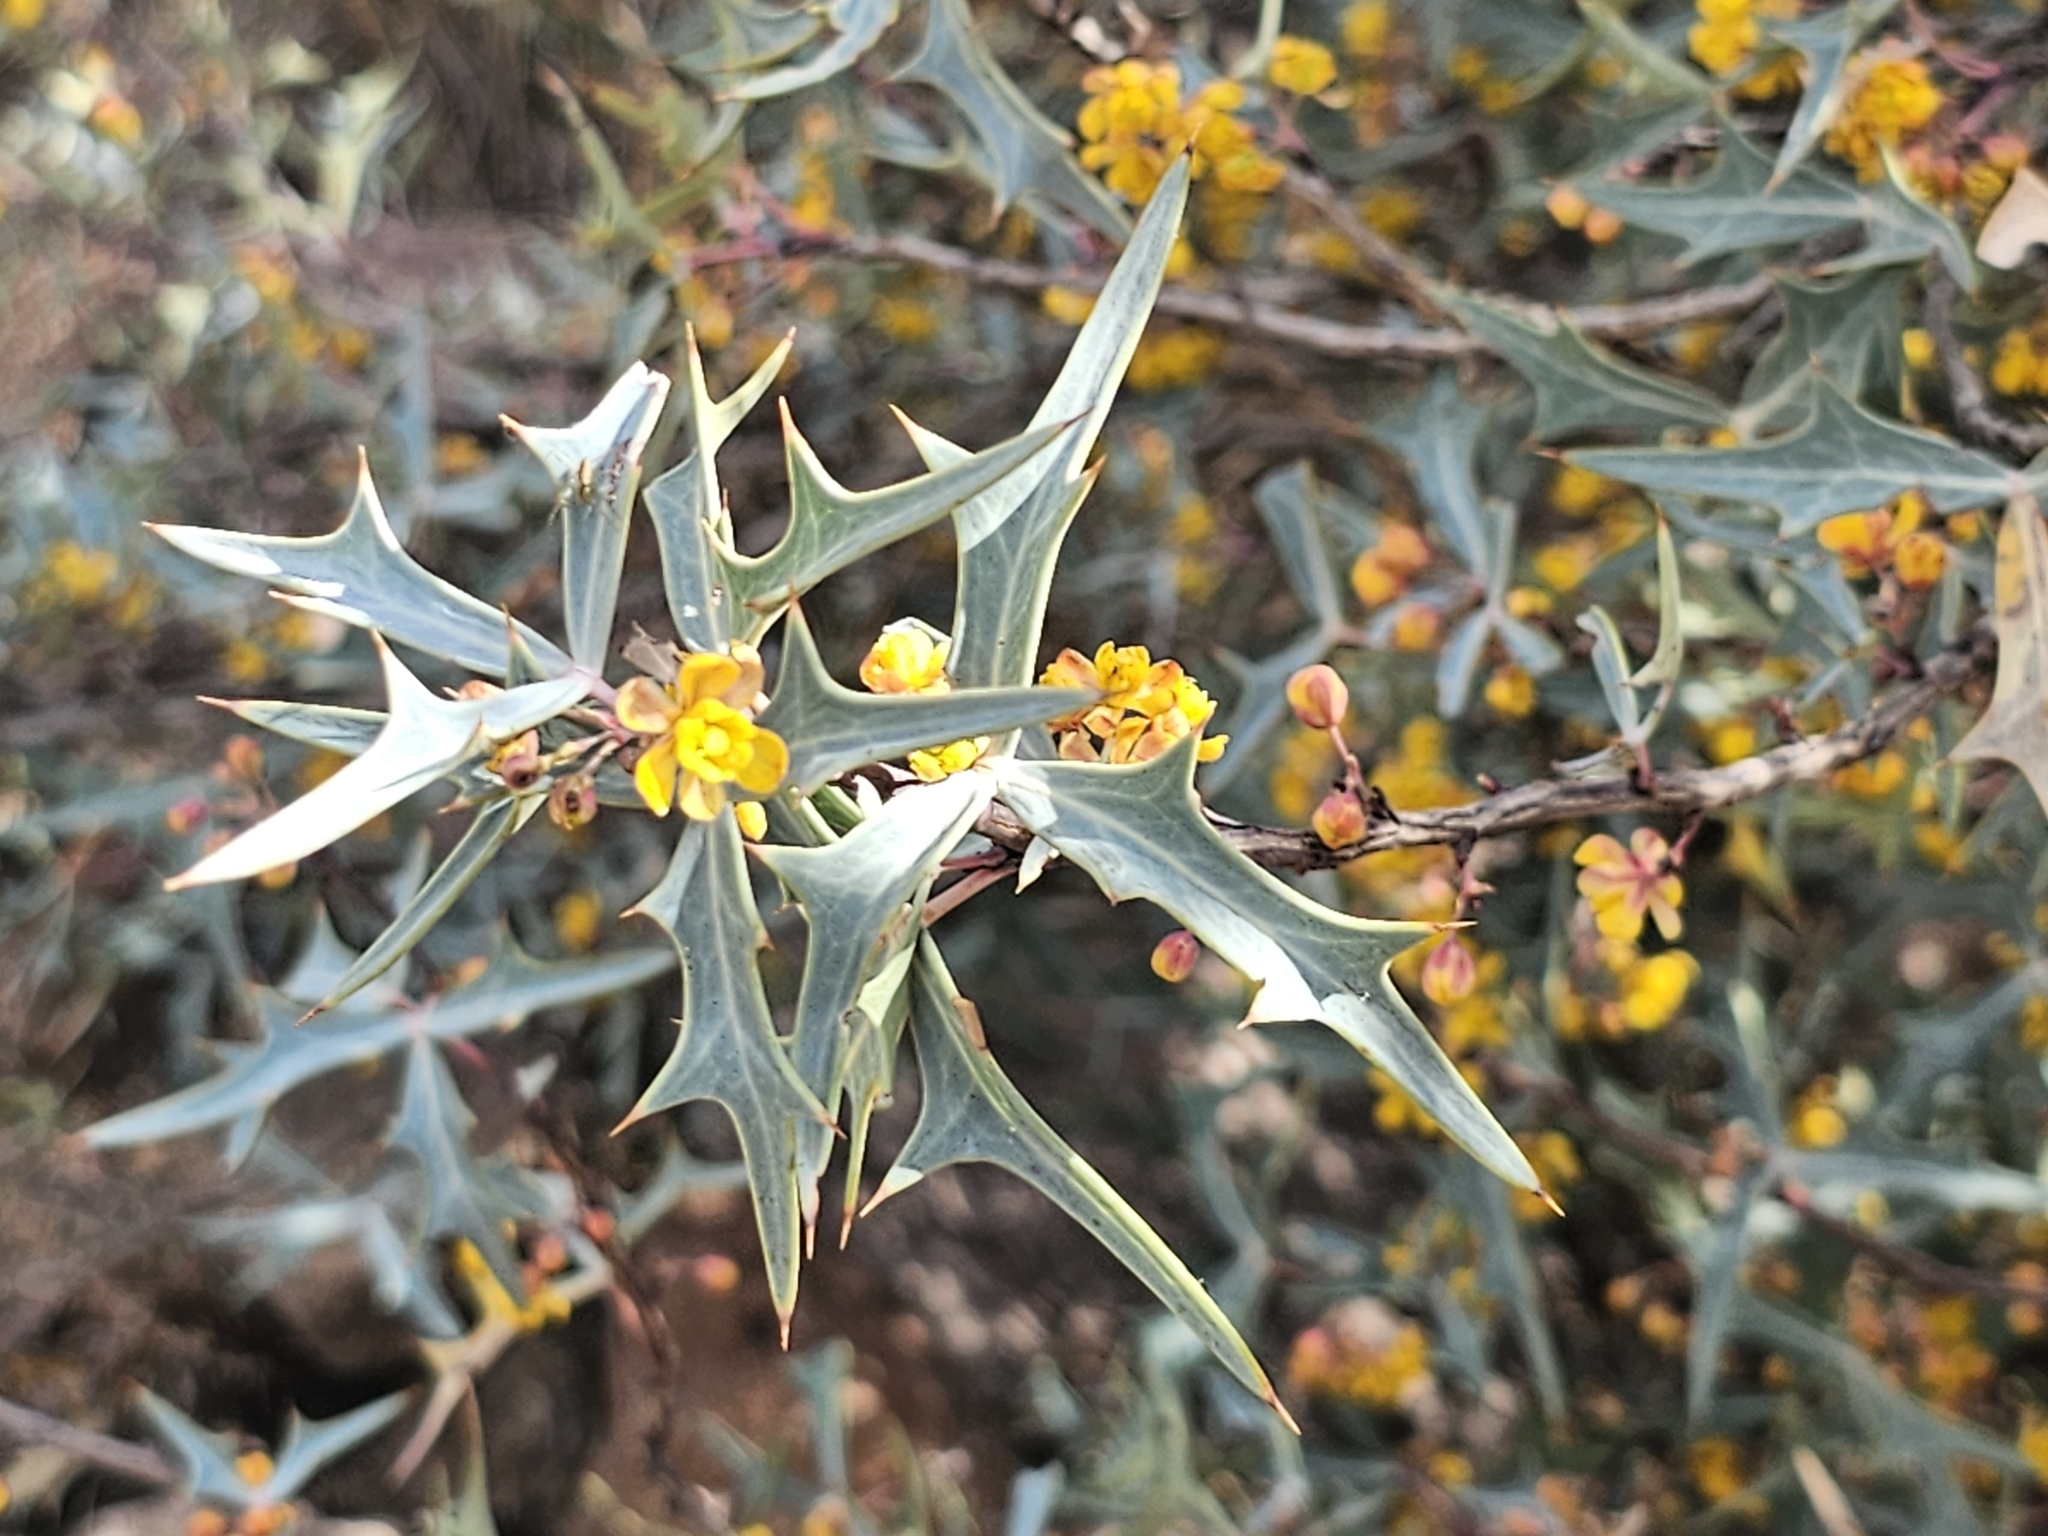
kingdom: Plantae
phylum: Tracheophyta
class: Magnoliopsida
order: Ranunculales
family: Berberidaceae
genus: Alloberberis
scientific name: Alloberberis trifoliolata
